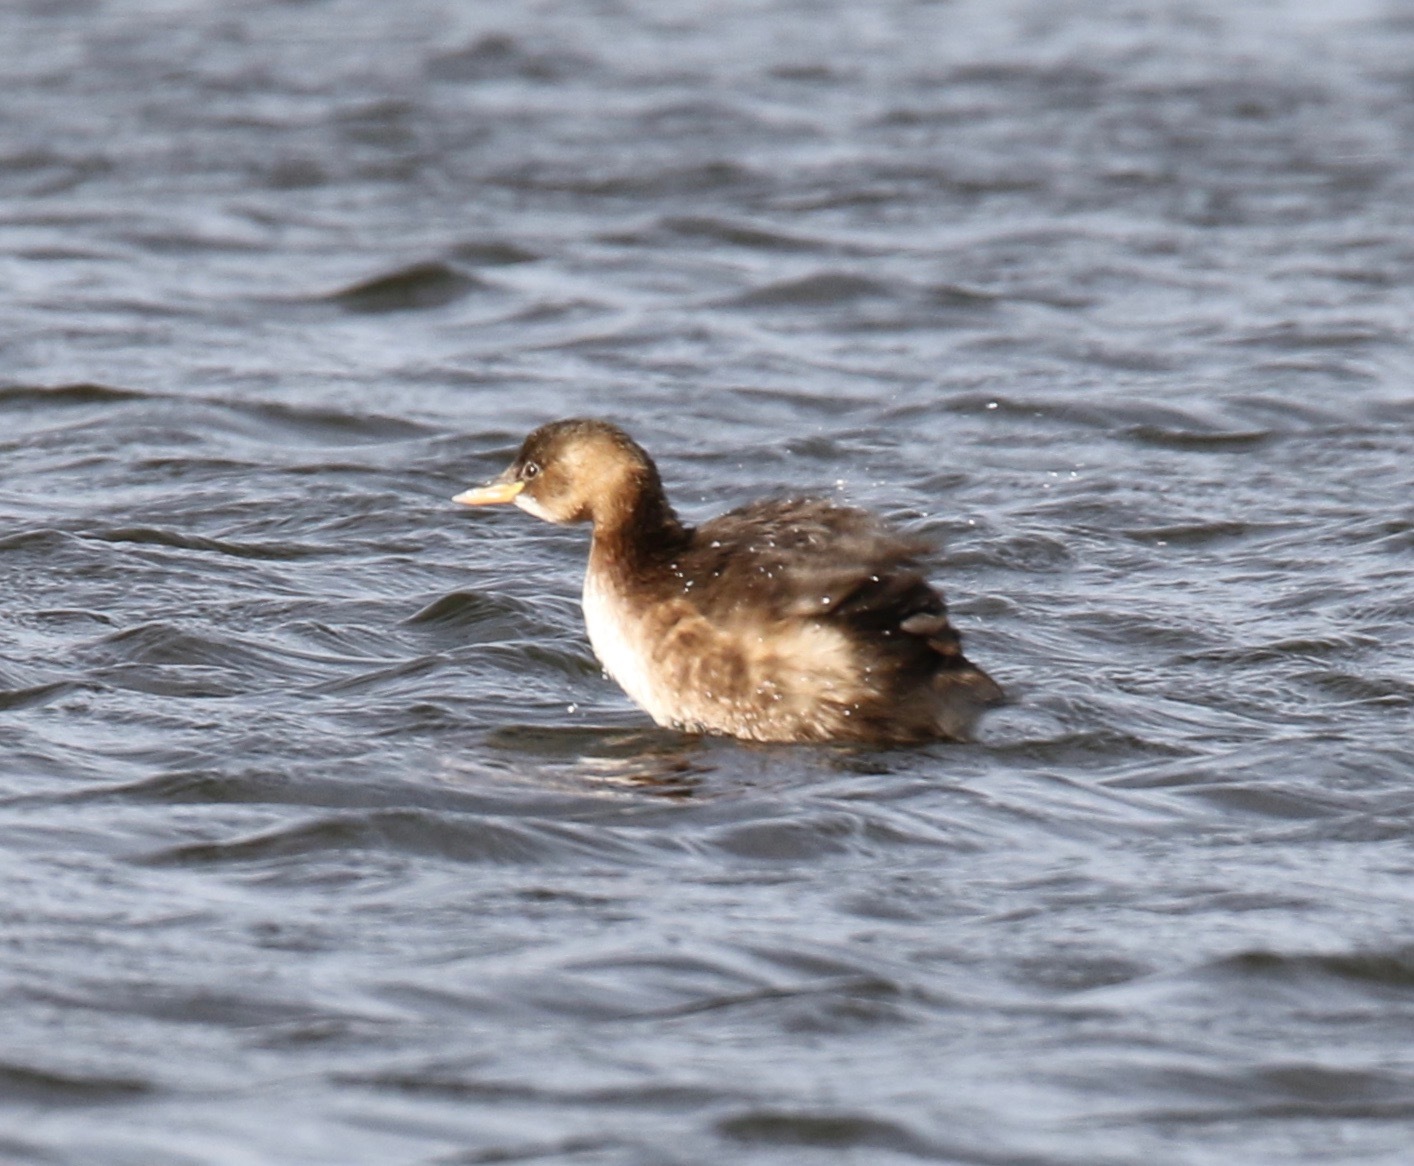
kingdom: Animalia
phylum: Chordata
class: Aves
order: Podicipediformes
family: Podicipedidae
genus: Tachybaptus
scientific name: Tachybaptus ruficollis
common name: Little grebe
